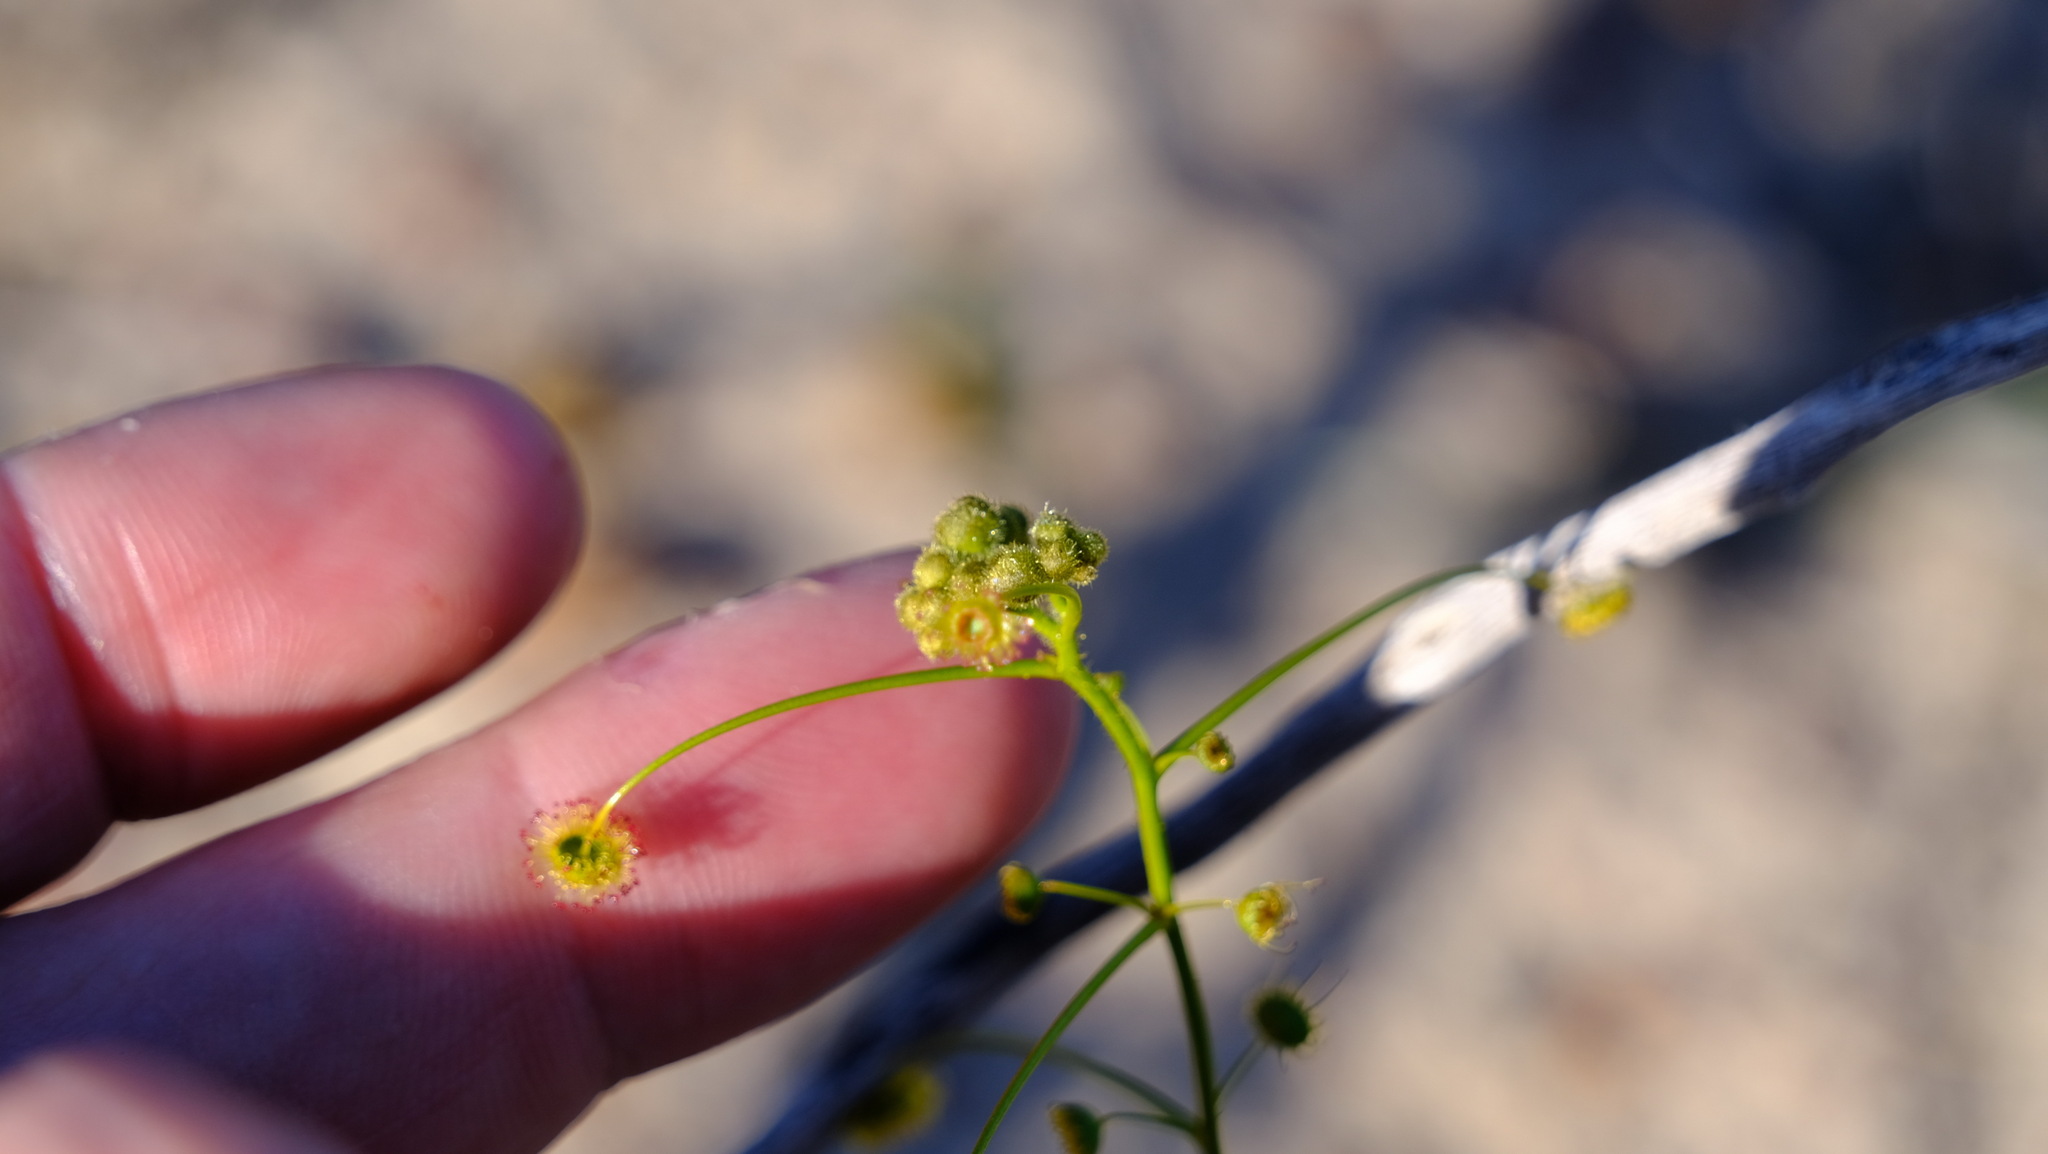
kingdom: Plantae
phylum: Tracheophyta
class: Magnoliopsida
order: Caryophyllales
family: Droseraceae
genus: Drosera
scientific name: Drosera hirsuta
